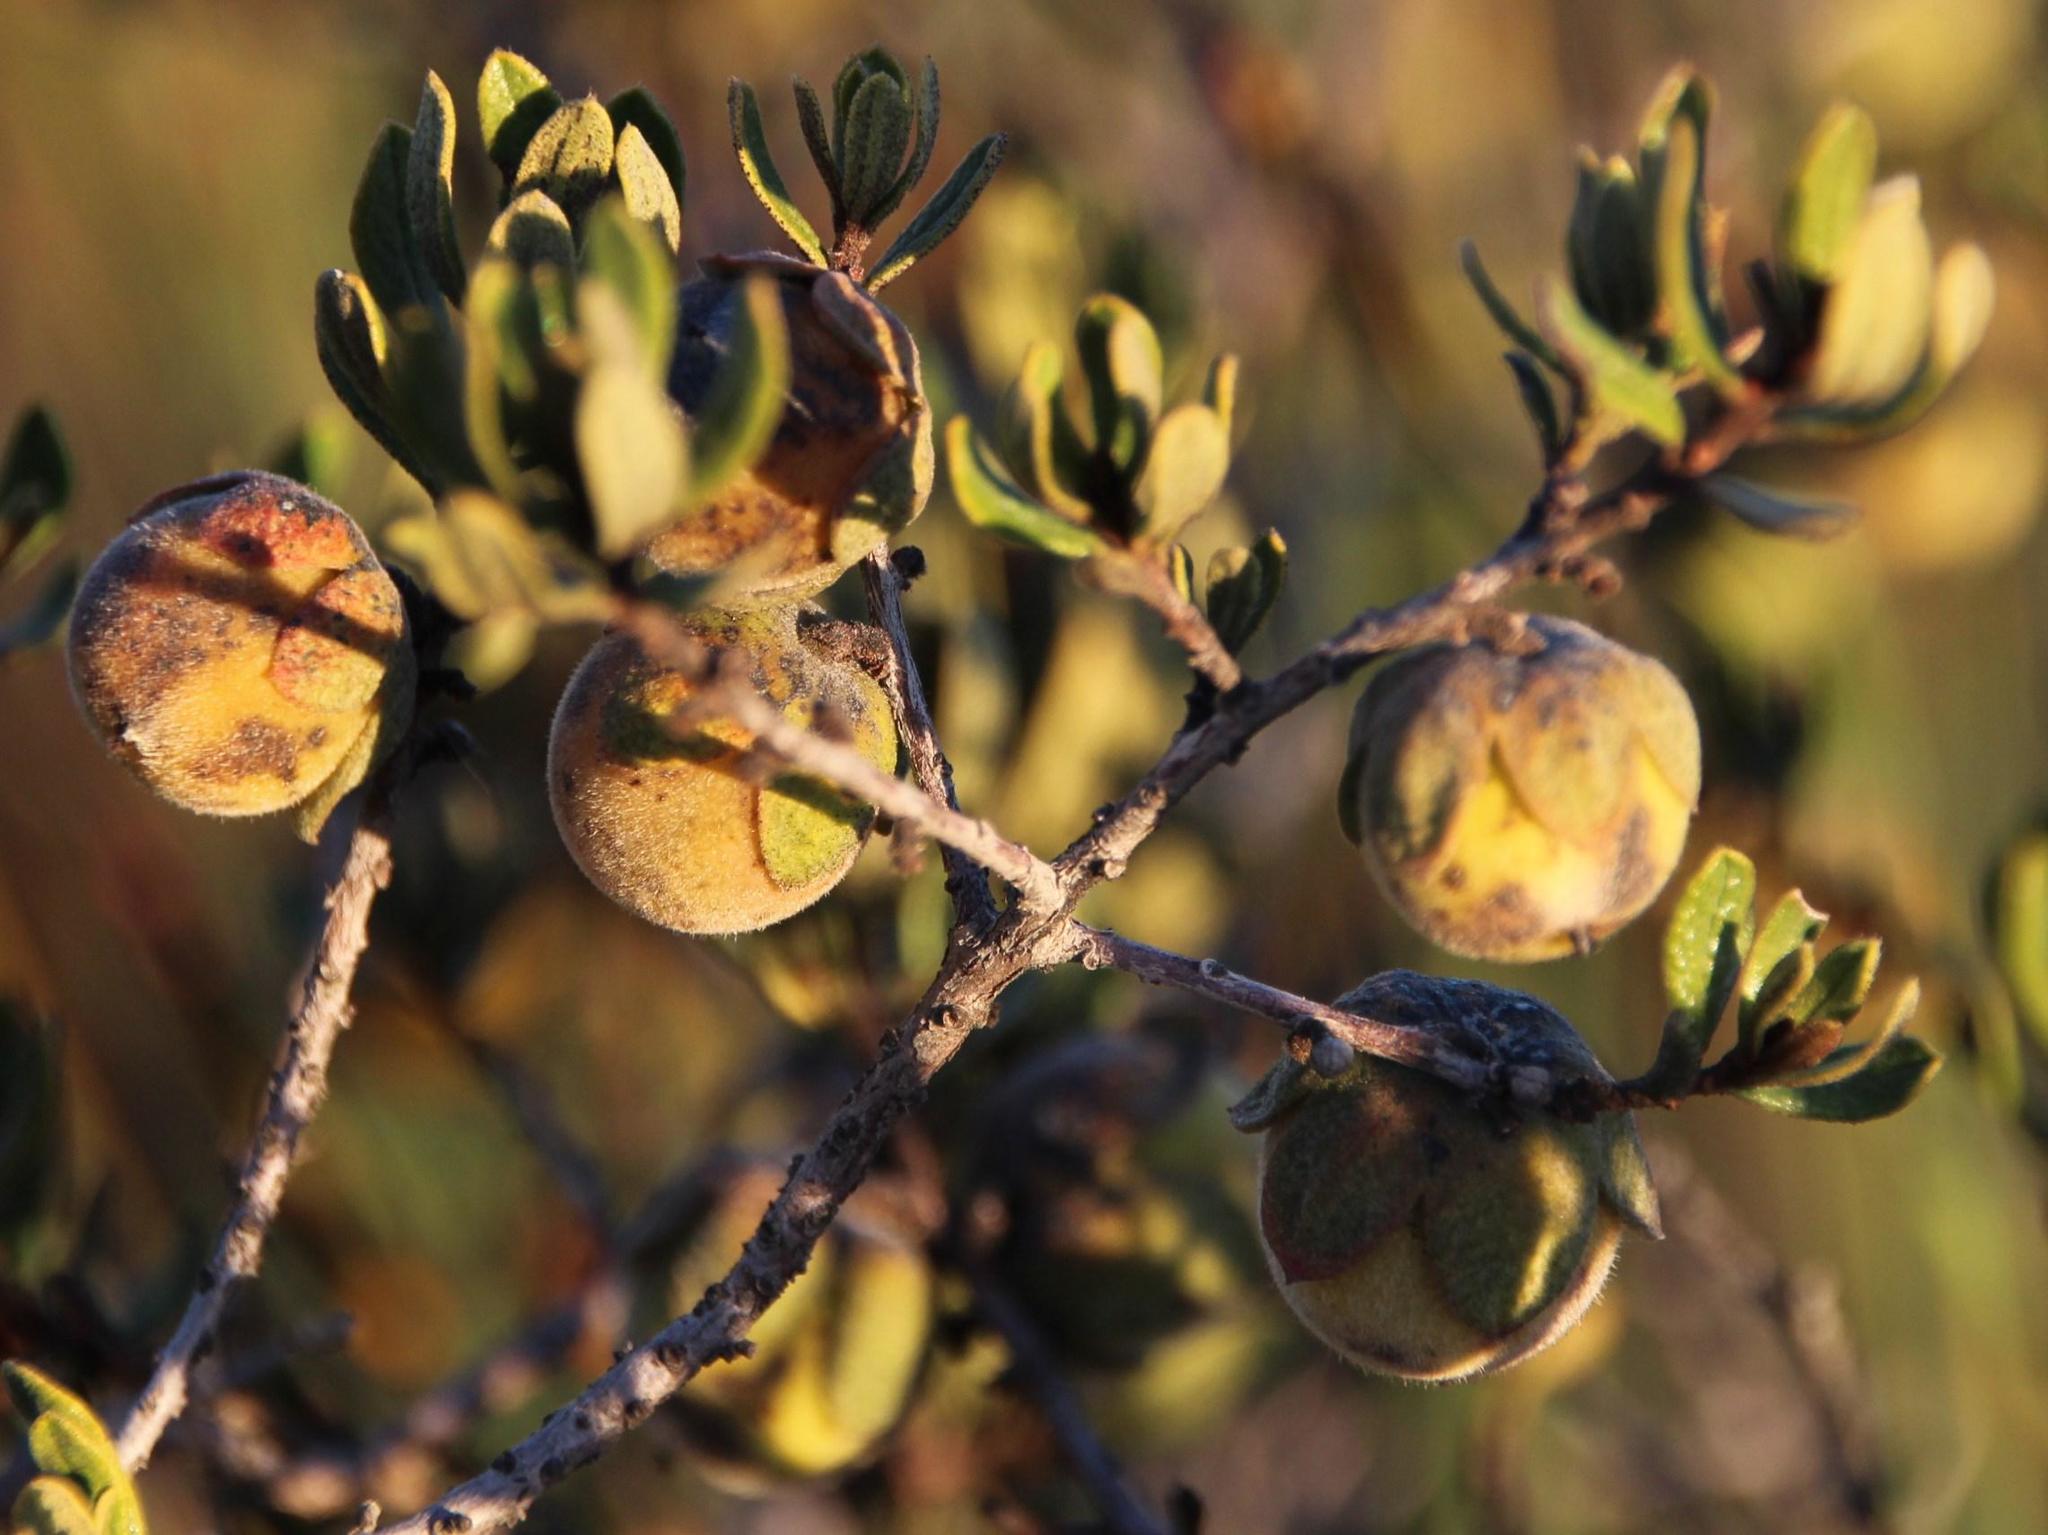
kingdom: Plantae
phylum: Tracheophyta
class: Magnoliopsida
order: Ericales
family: Ebenaceae
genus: Diospyros
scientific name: Diospyros pubescens
